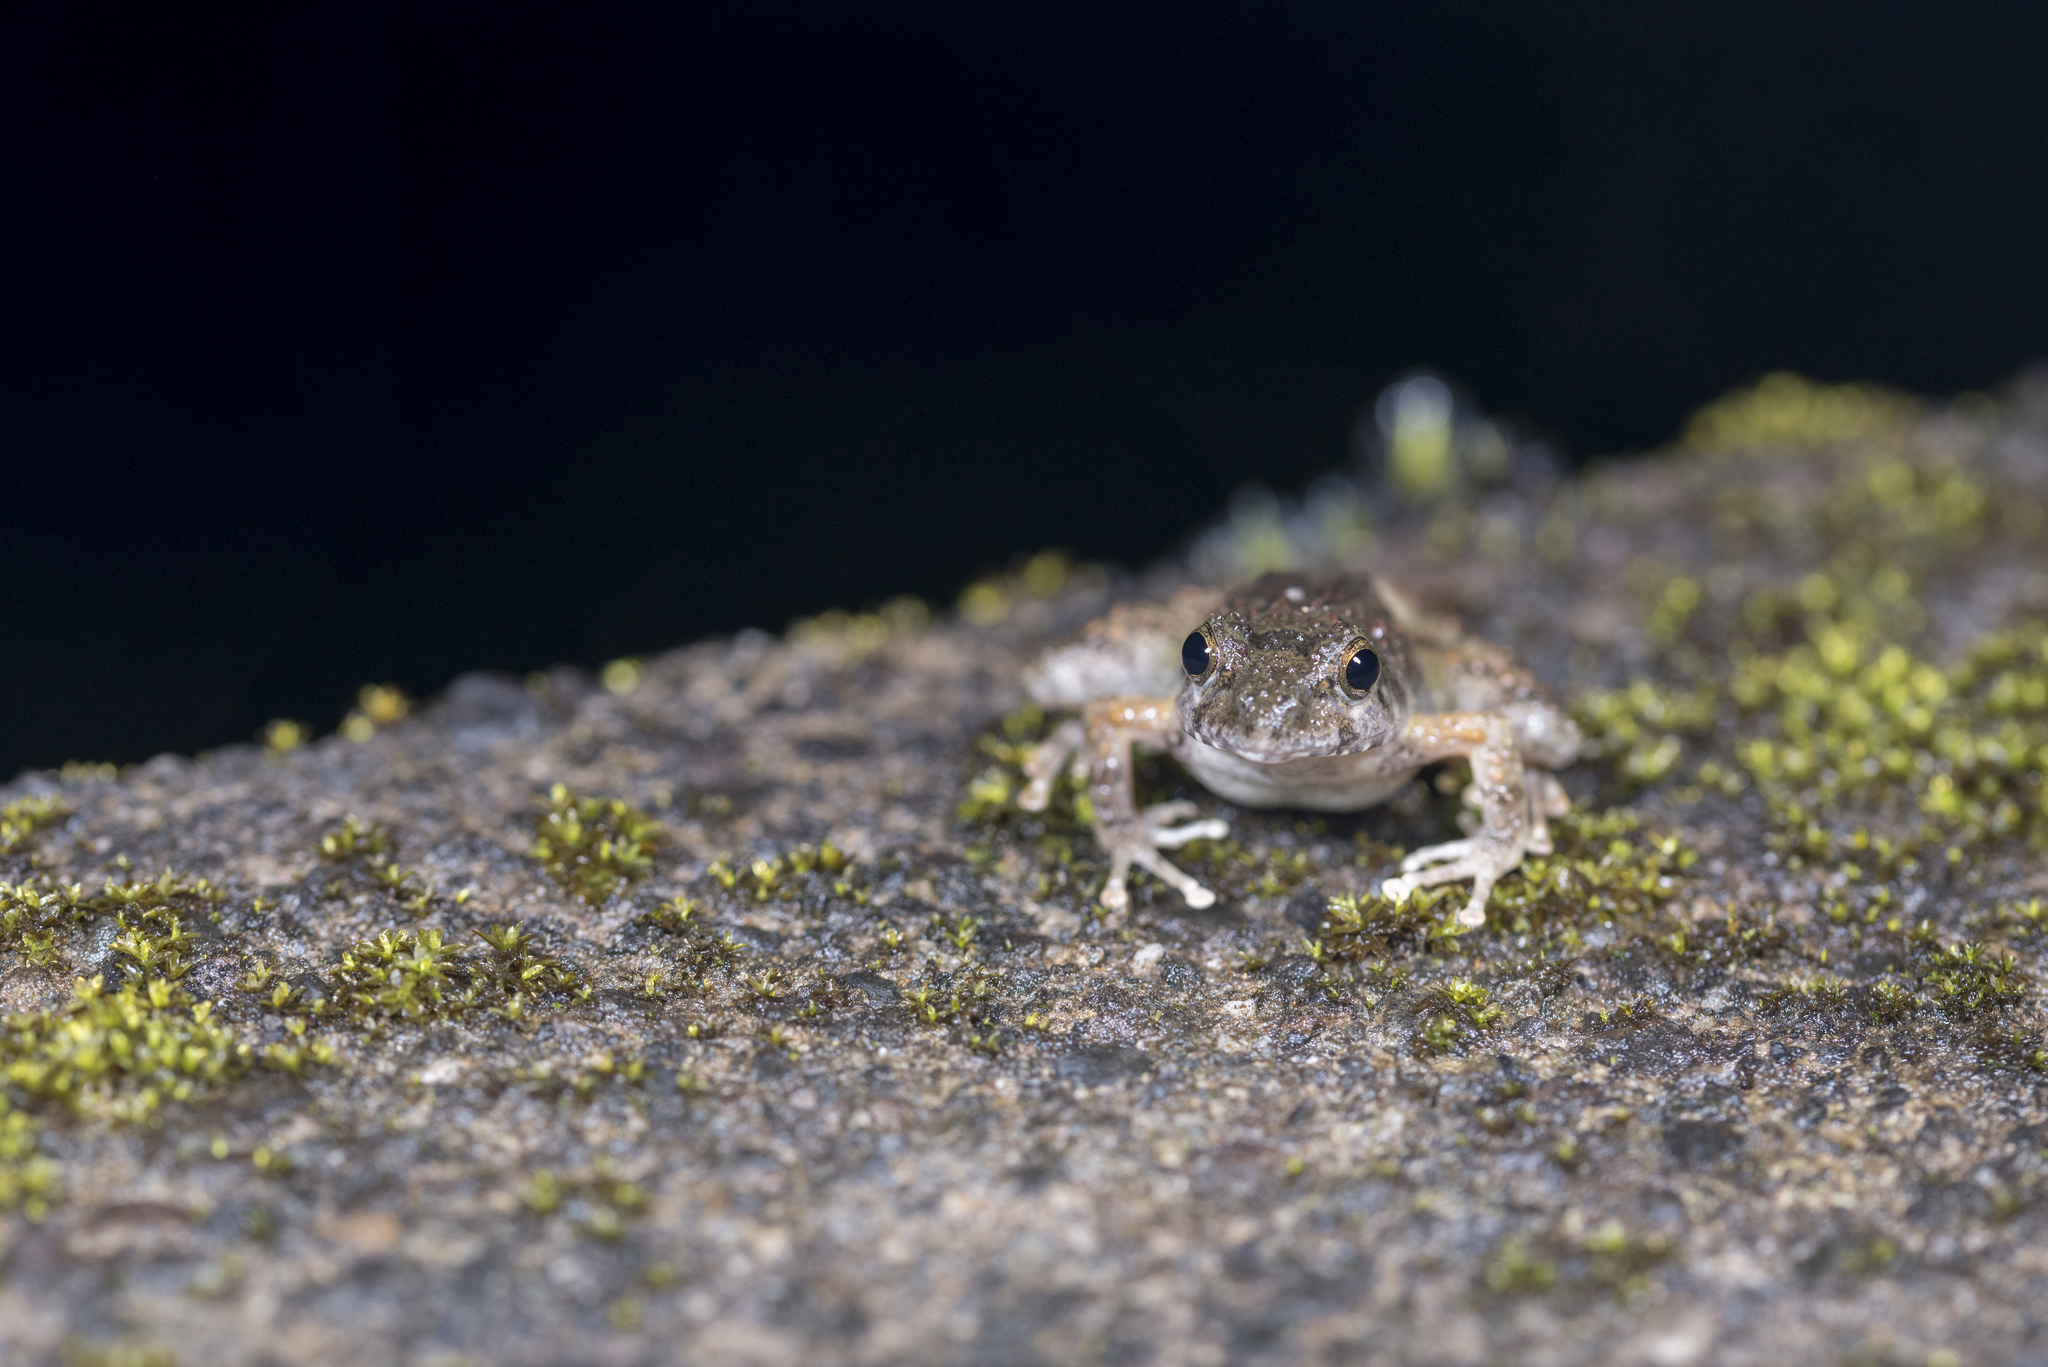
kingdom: Animalia
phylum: Chordata
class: Amphibia
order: Anura
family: Rhacophoridae
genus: Buergeria
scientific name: Buergeria choui
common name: Yaeyama kajika frog
